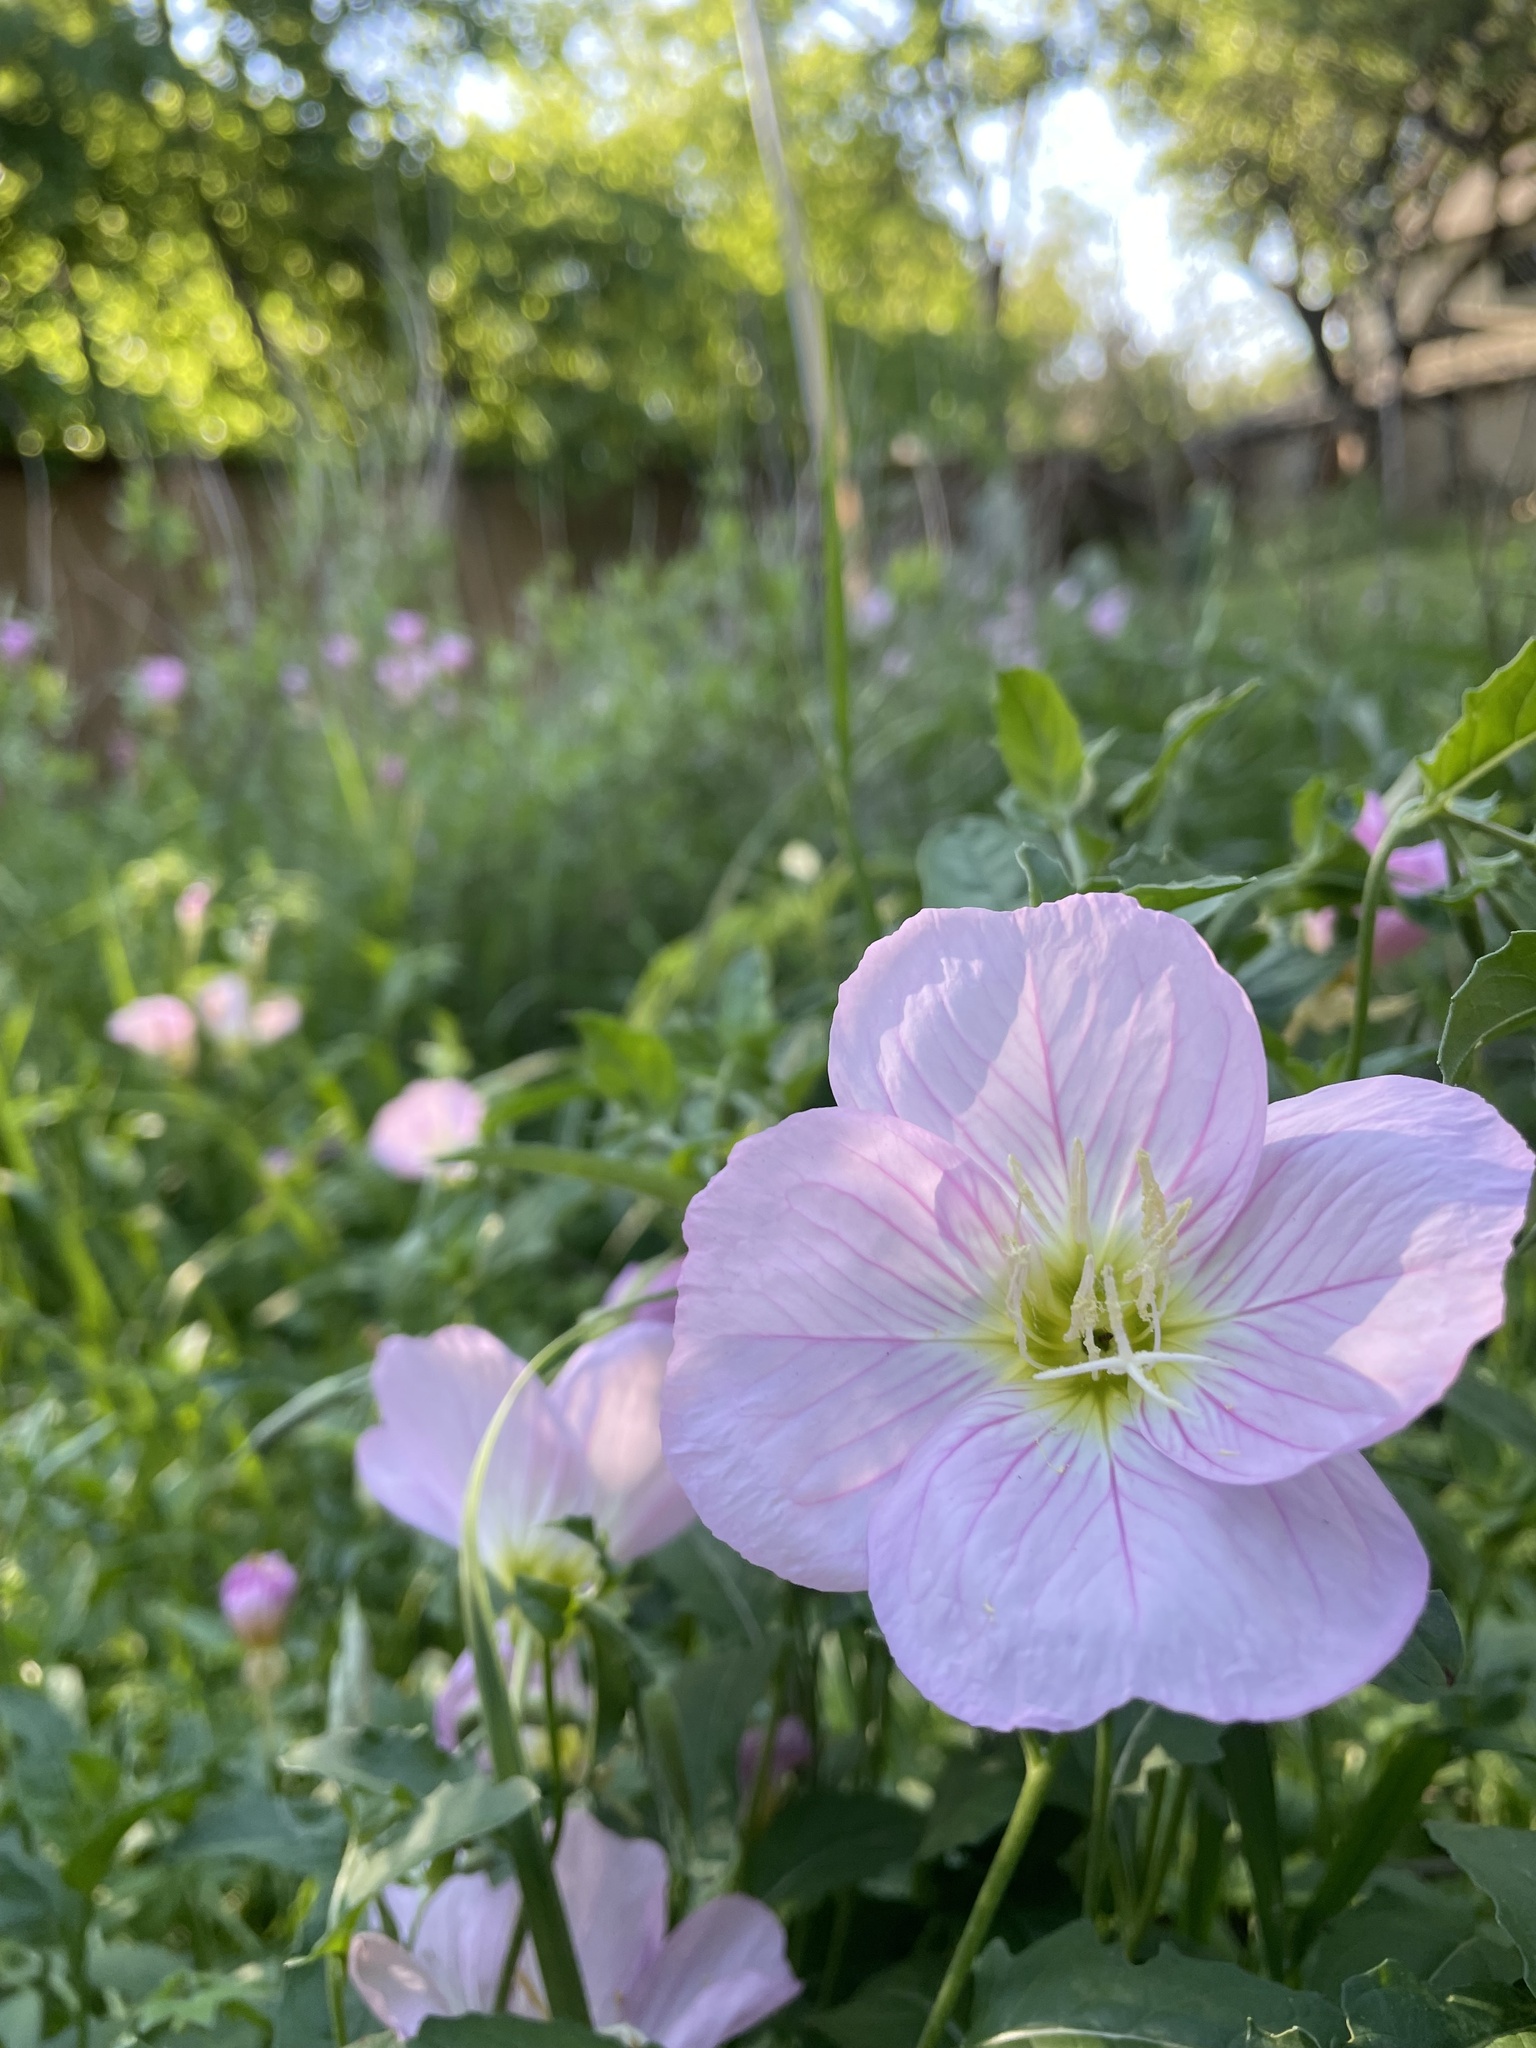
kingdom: Plantae
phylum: Tracheophyta
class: Magnoliopsida
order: Myrtales
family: Onagraceae
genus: Oenothera
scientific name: Oenothera speciosa
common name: White evening-primrose
